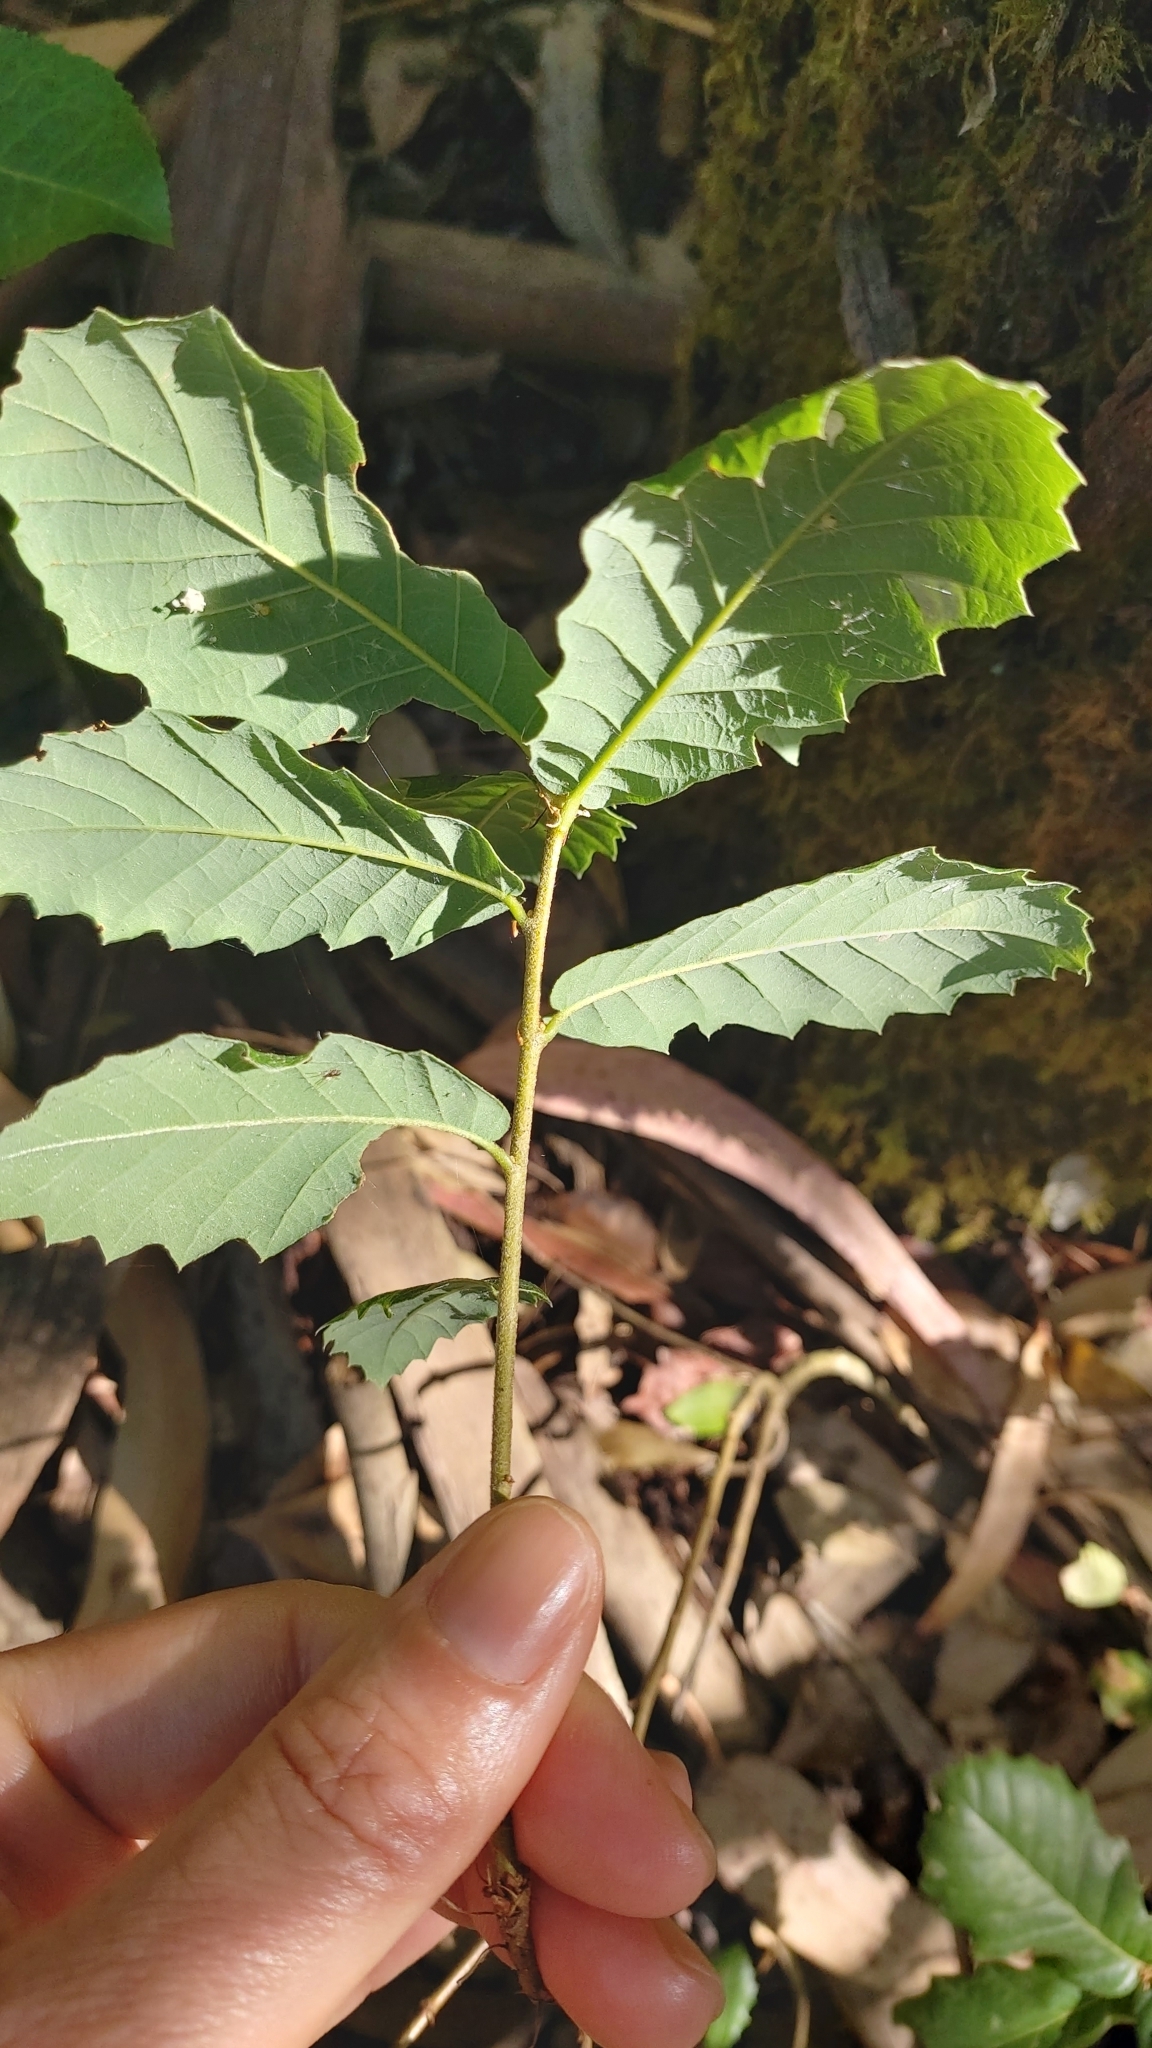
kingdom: Plantae
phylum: Tracheophyta
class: Magnoliopsida
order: Fagales
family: Fagaceae
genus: Quercus
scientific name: Quercus faginea
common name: Gall oak tree
